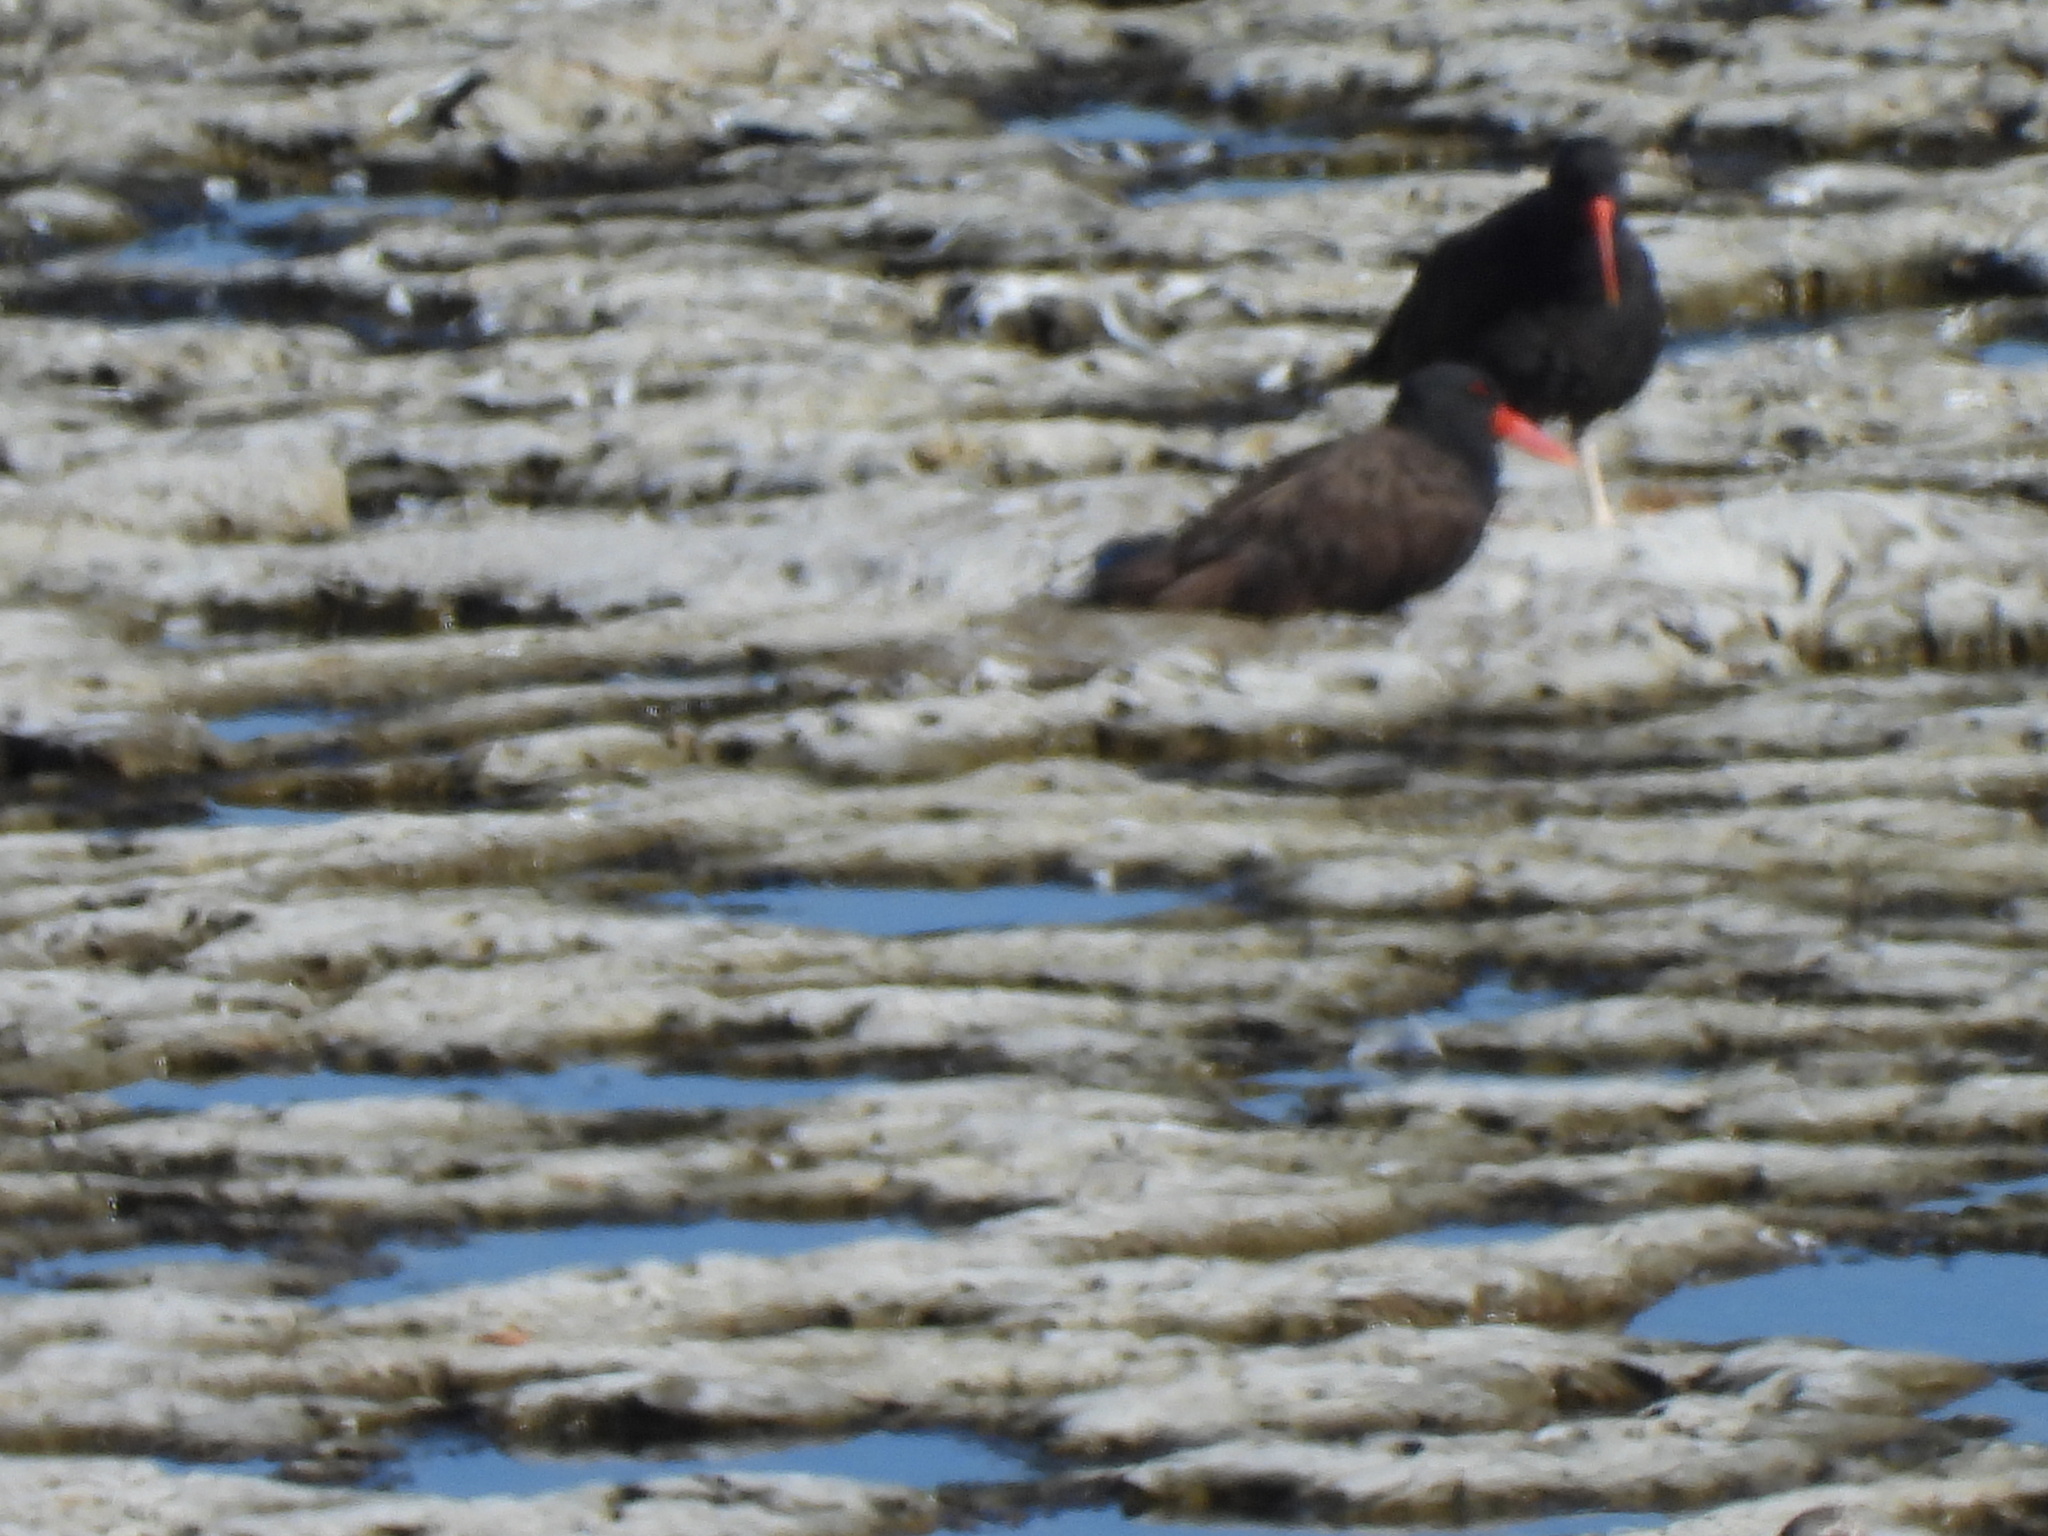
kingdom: Animalia
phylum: Chordata
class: Aves
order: Charadriiformes
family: Haematopodidae
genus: Haematopus
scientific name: Haematopus ater
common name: Blackish oystercatcher
